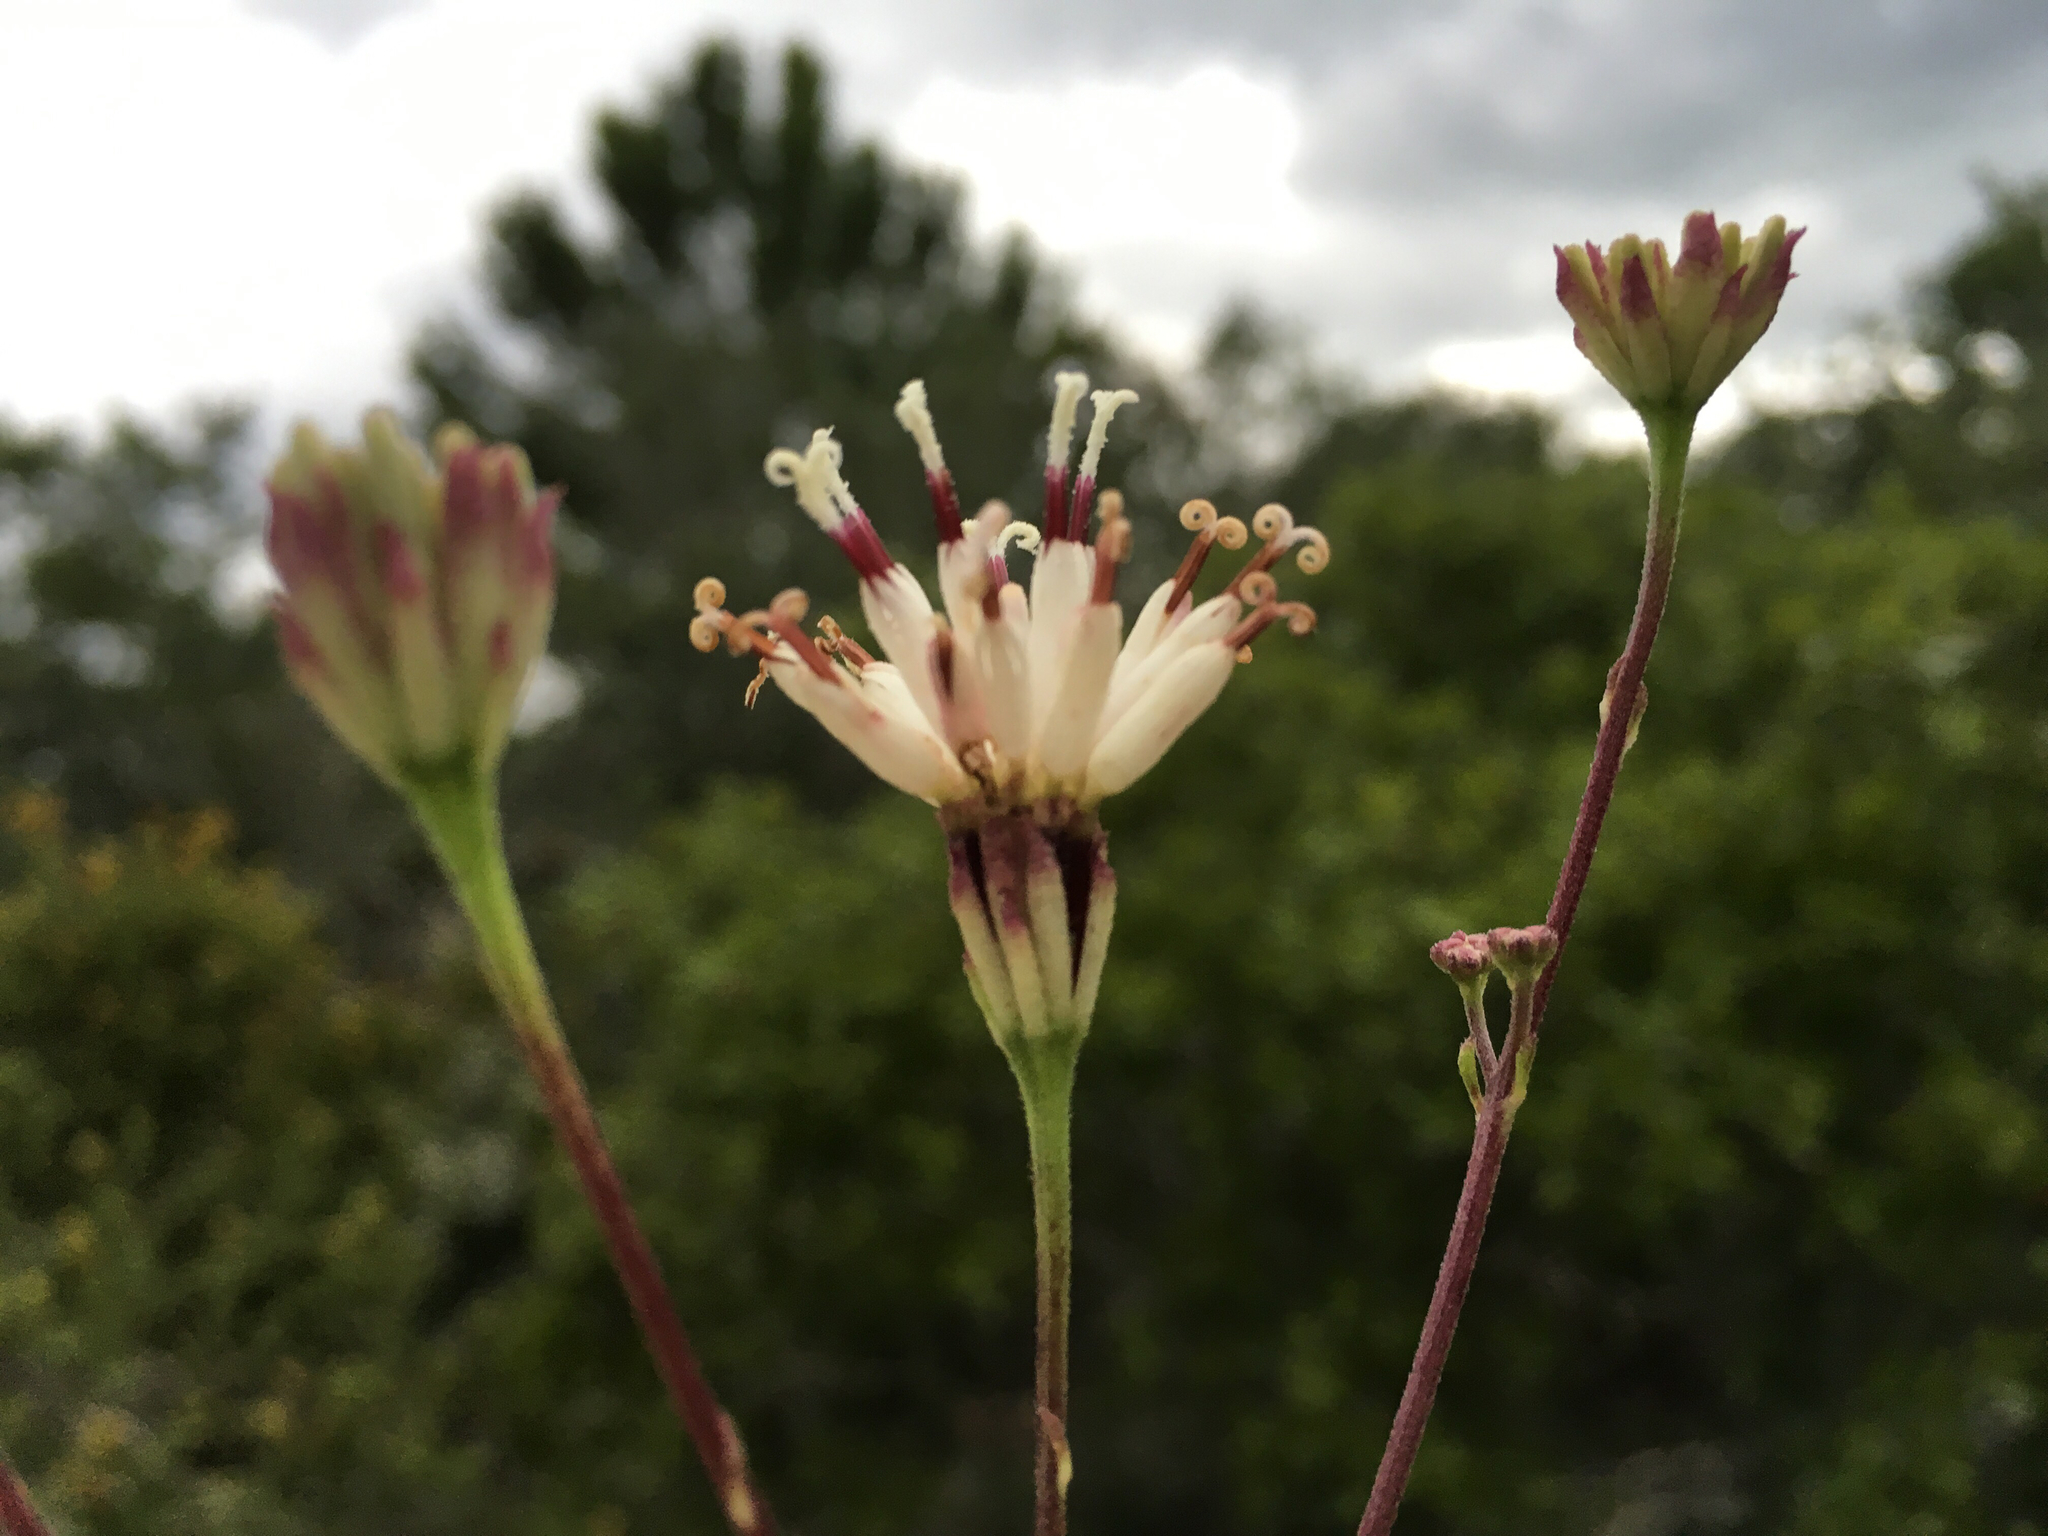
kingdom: Plantae
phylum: Tracheophyta
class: Magnoliopsida
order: Asterales
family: Asteraceae
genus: Palafoxia
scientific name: Palafoxia feayi
